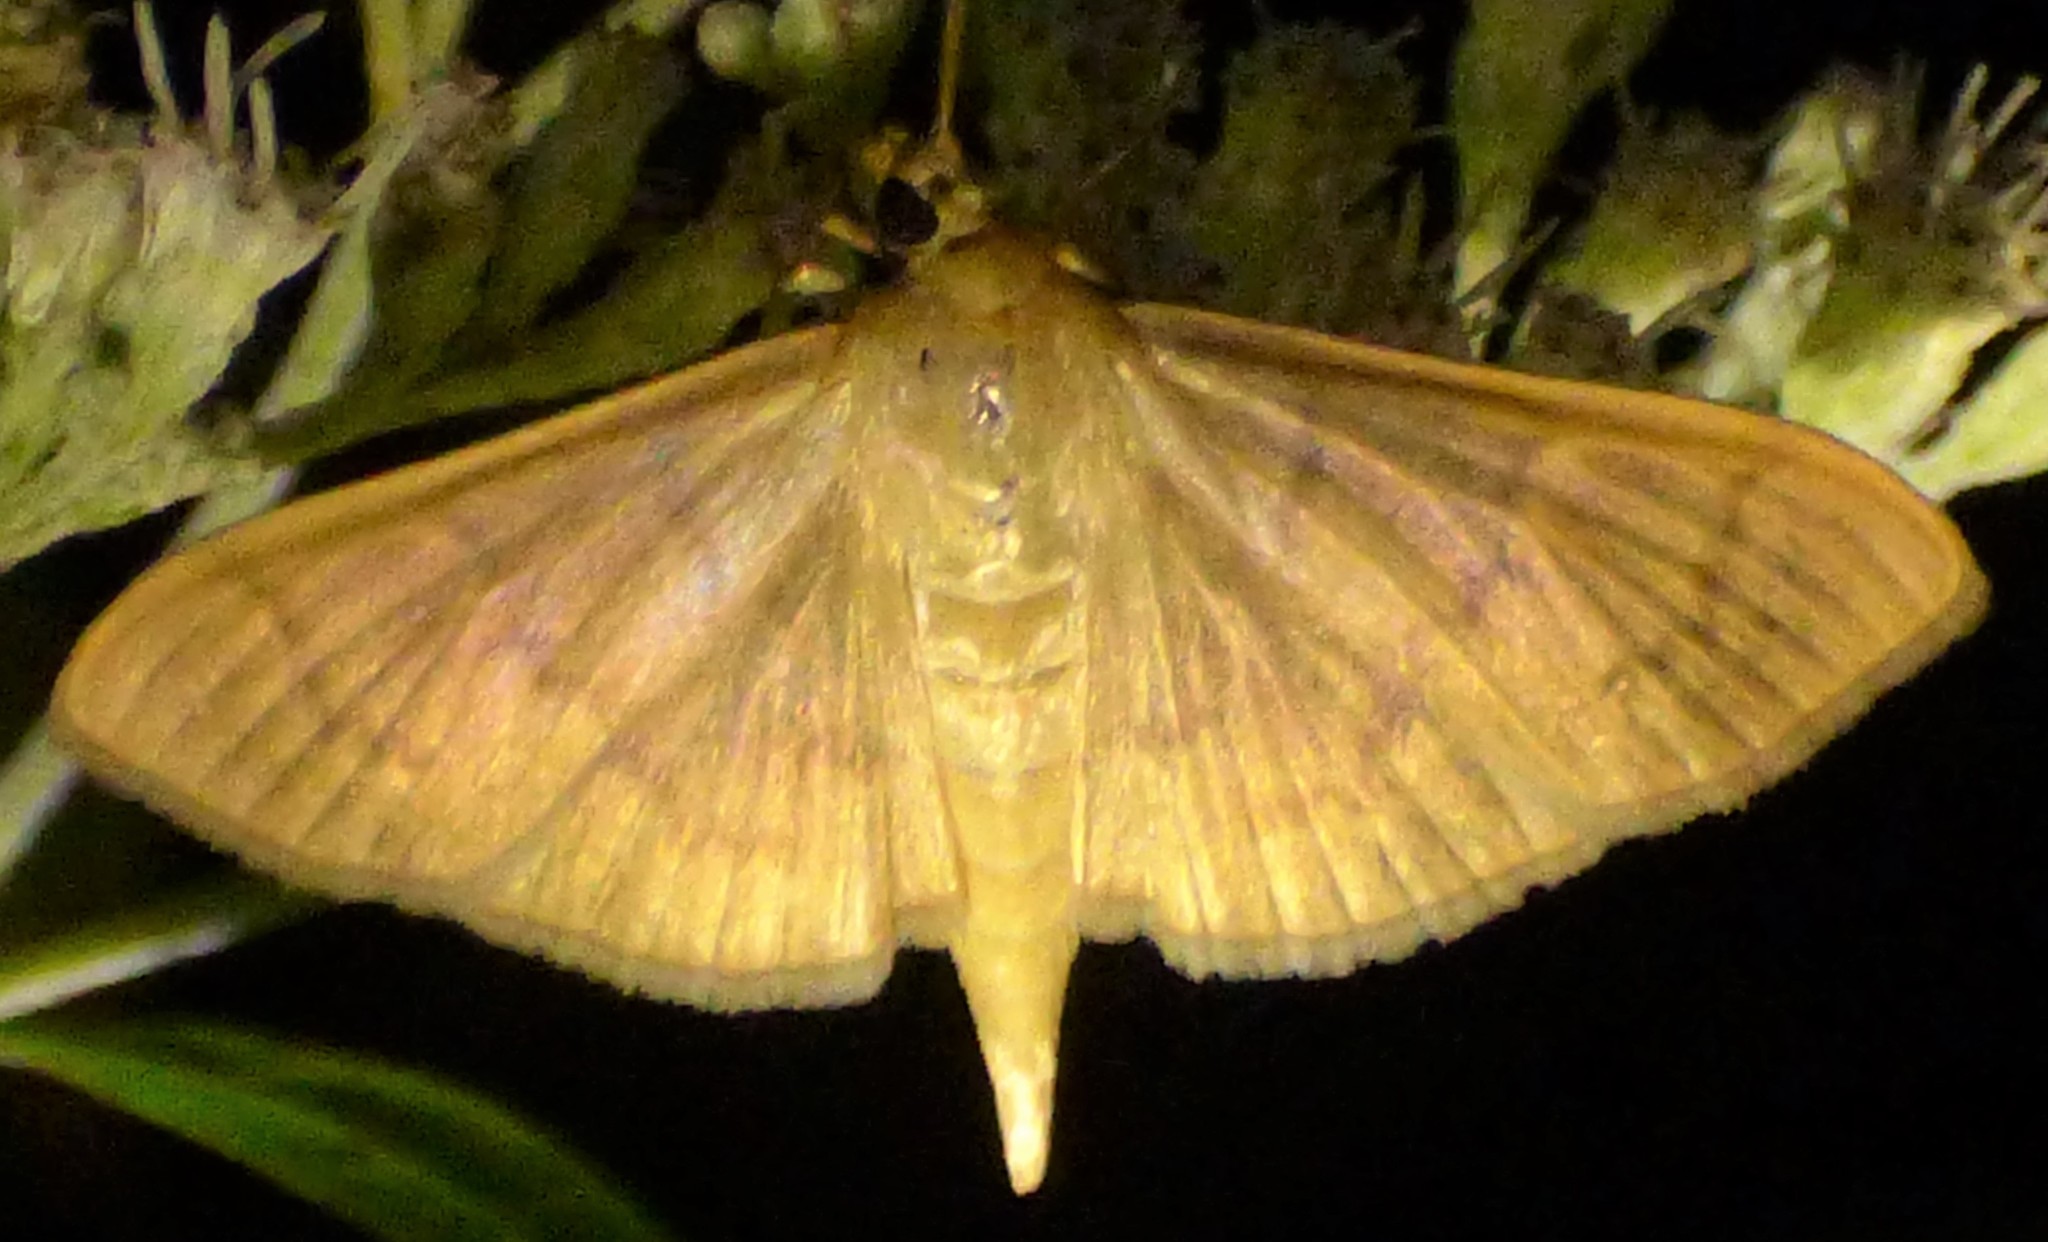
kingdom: Animalia
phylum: Arthropoda
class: Insecta
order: Lepidoptera
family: Crambidae
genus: Pleuroptya
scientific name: Pleuroptya silicalis
